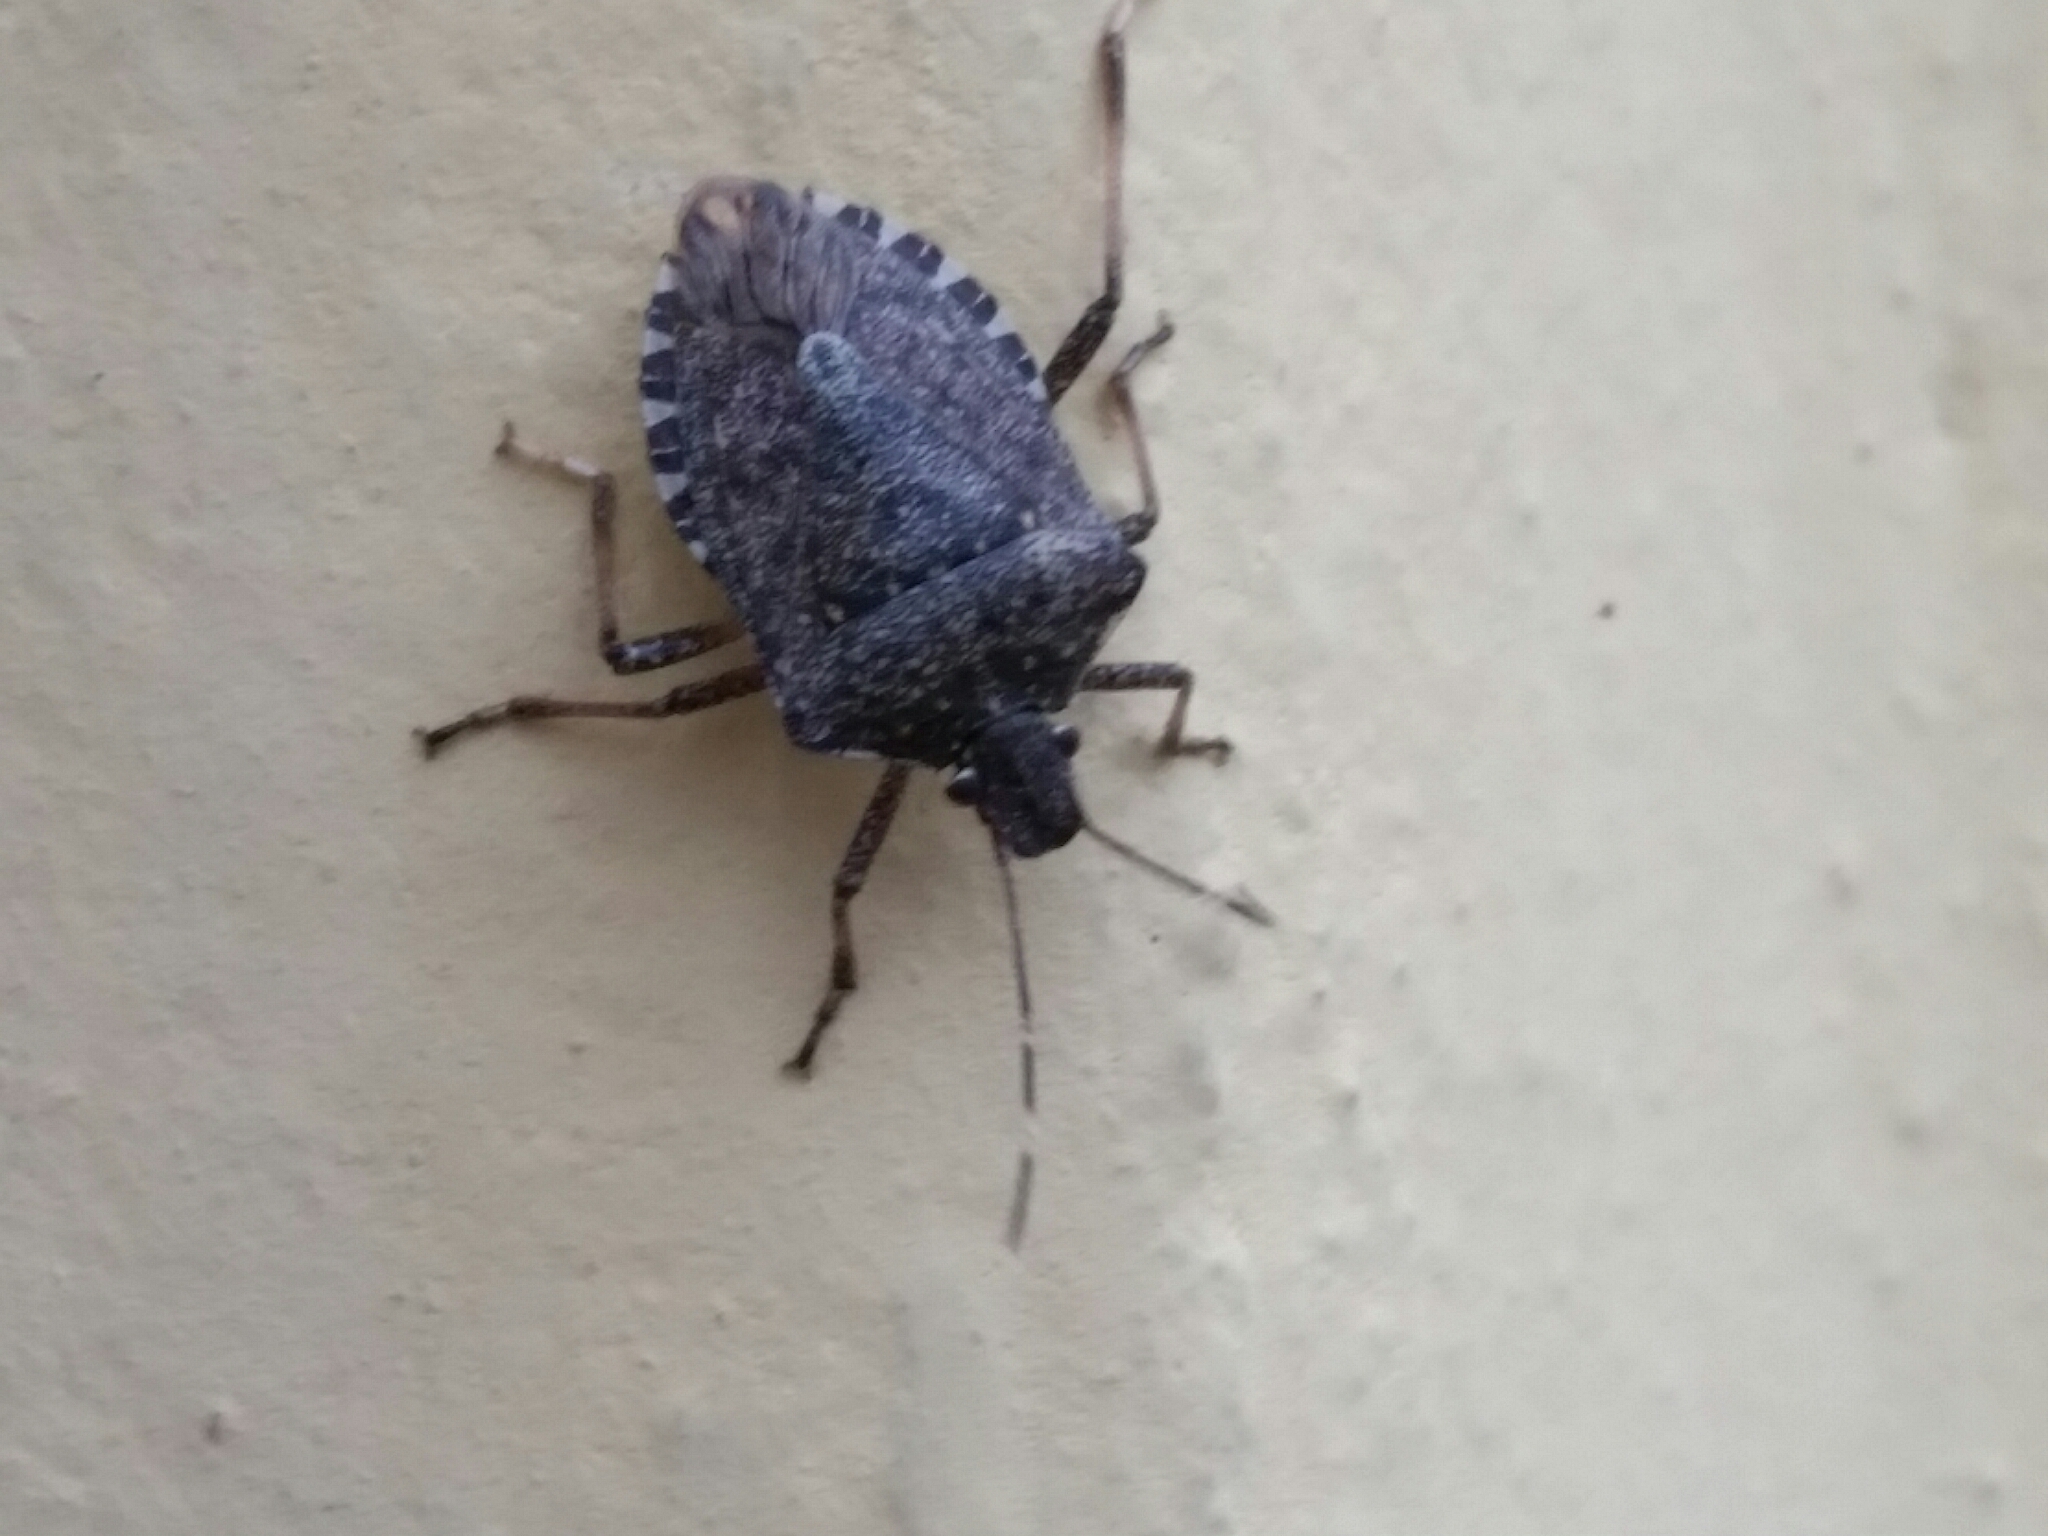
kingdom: Animalia
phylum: Arthropoda
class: Insecta
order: Hemiptera
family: Pentatomidae
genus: Halyomorpha
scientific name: Halyomorpha halys
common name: Brown marmorated stink bug
